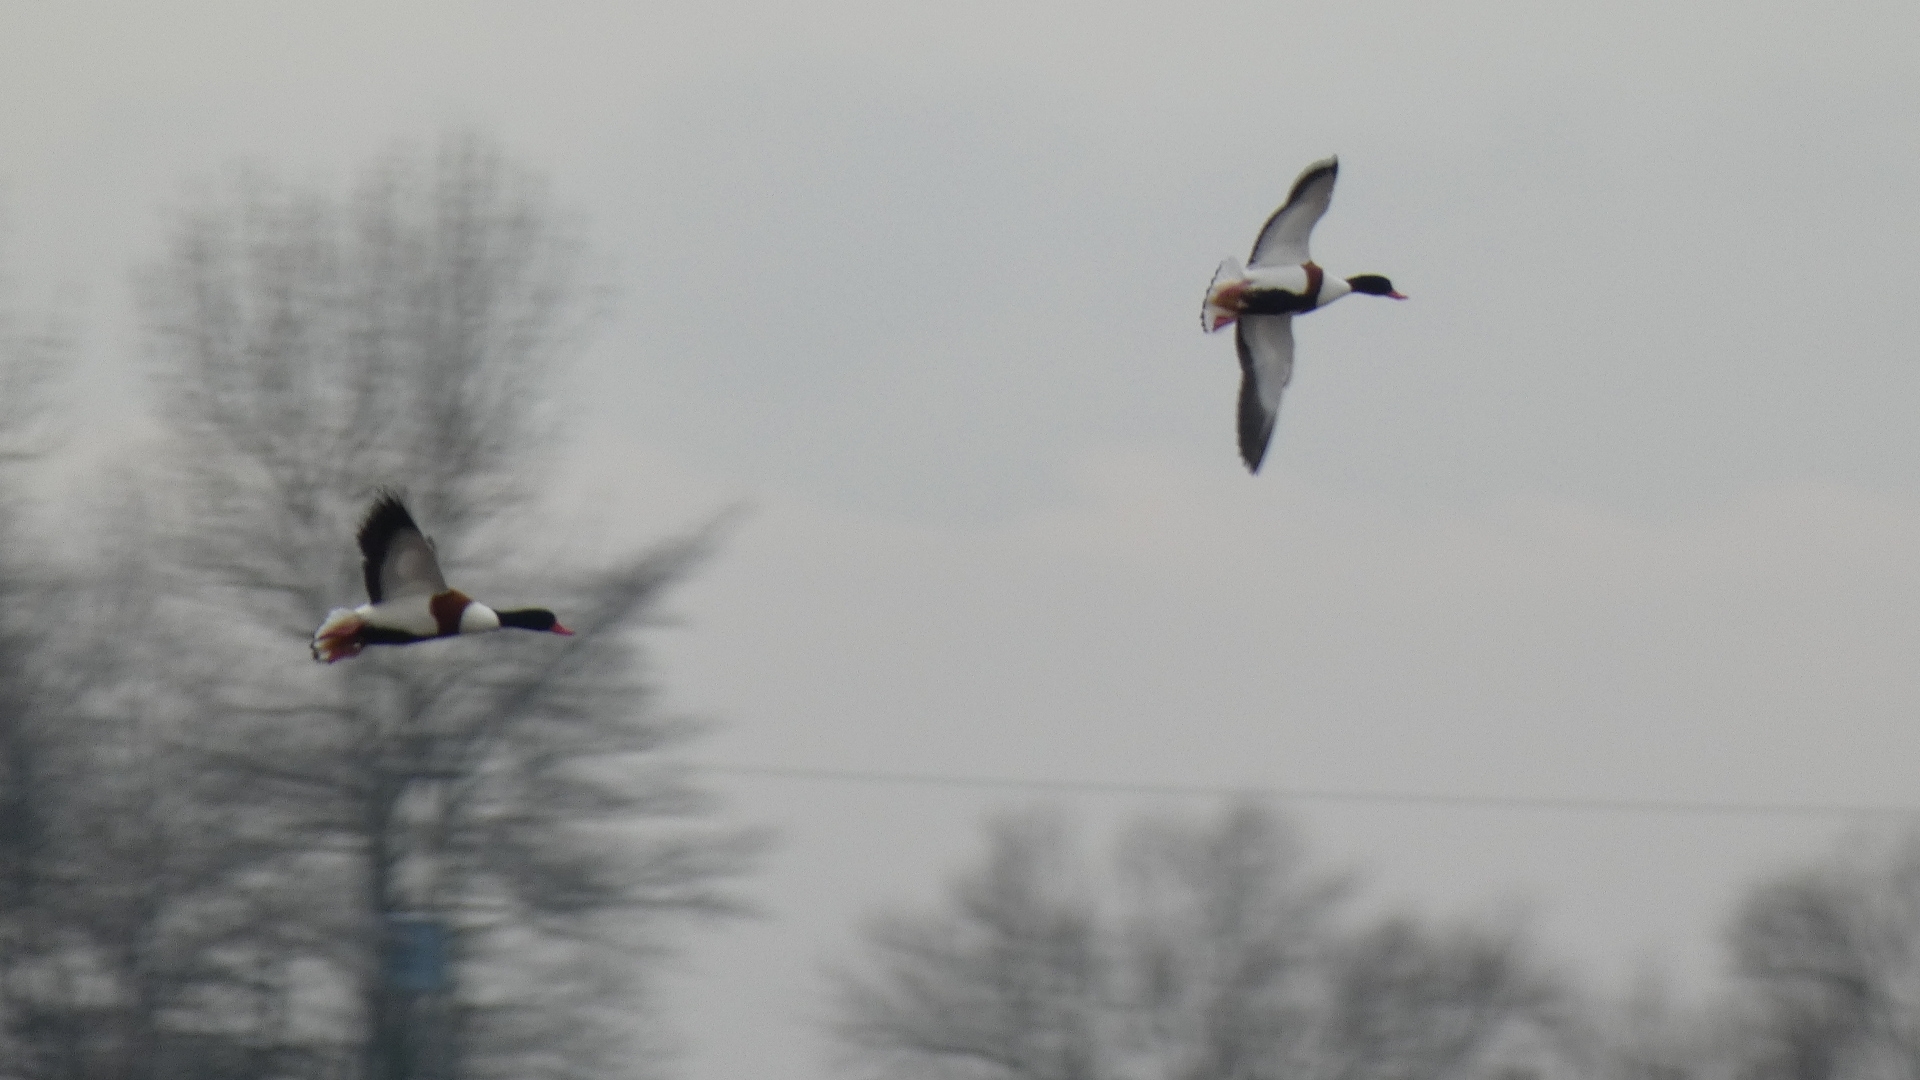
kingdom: Animalia
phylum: Chordata
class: Aves
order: Anseriformes
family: Anatidae
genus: Tadorna
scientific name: Tadorna tadorna
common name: Common shelduck
